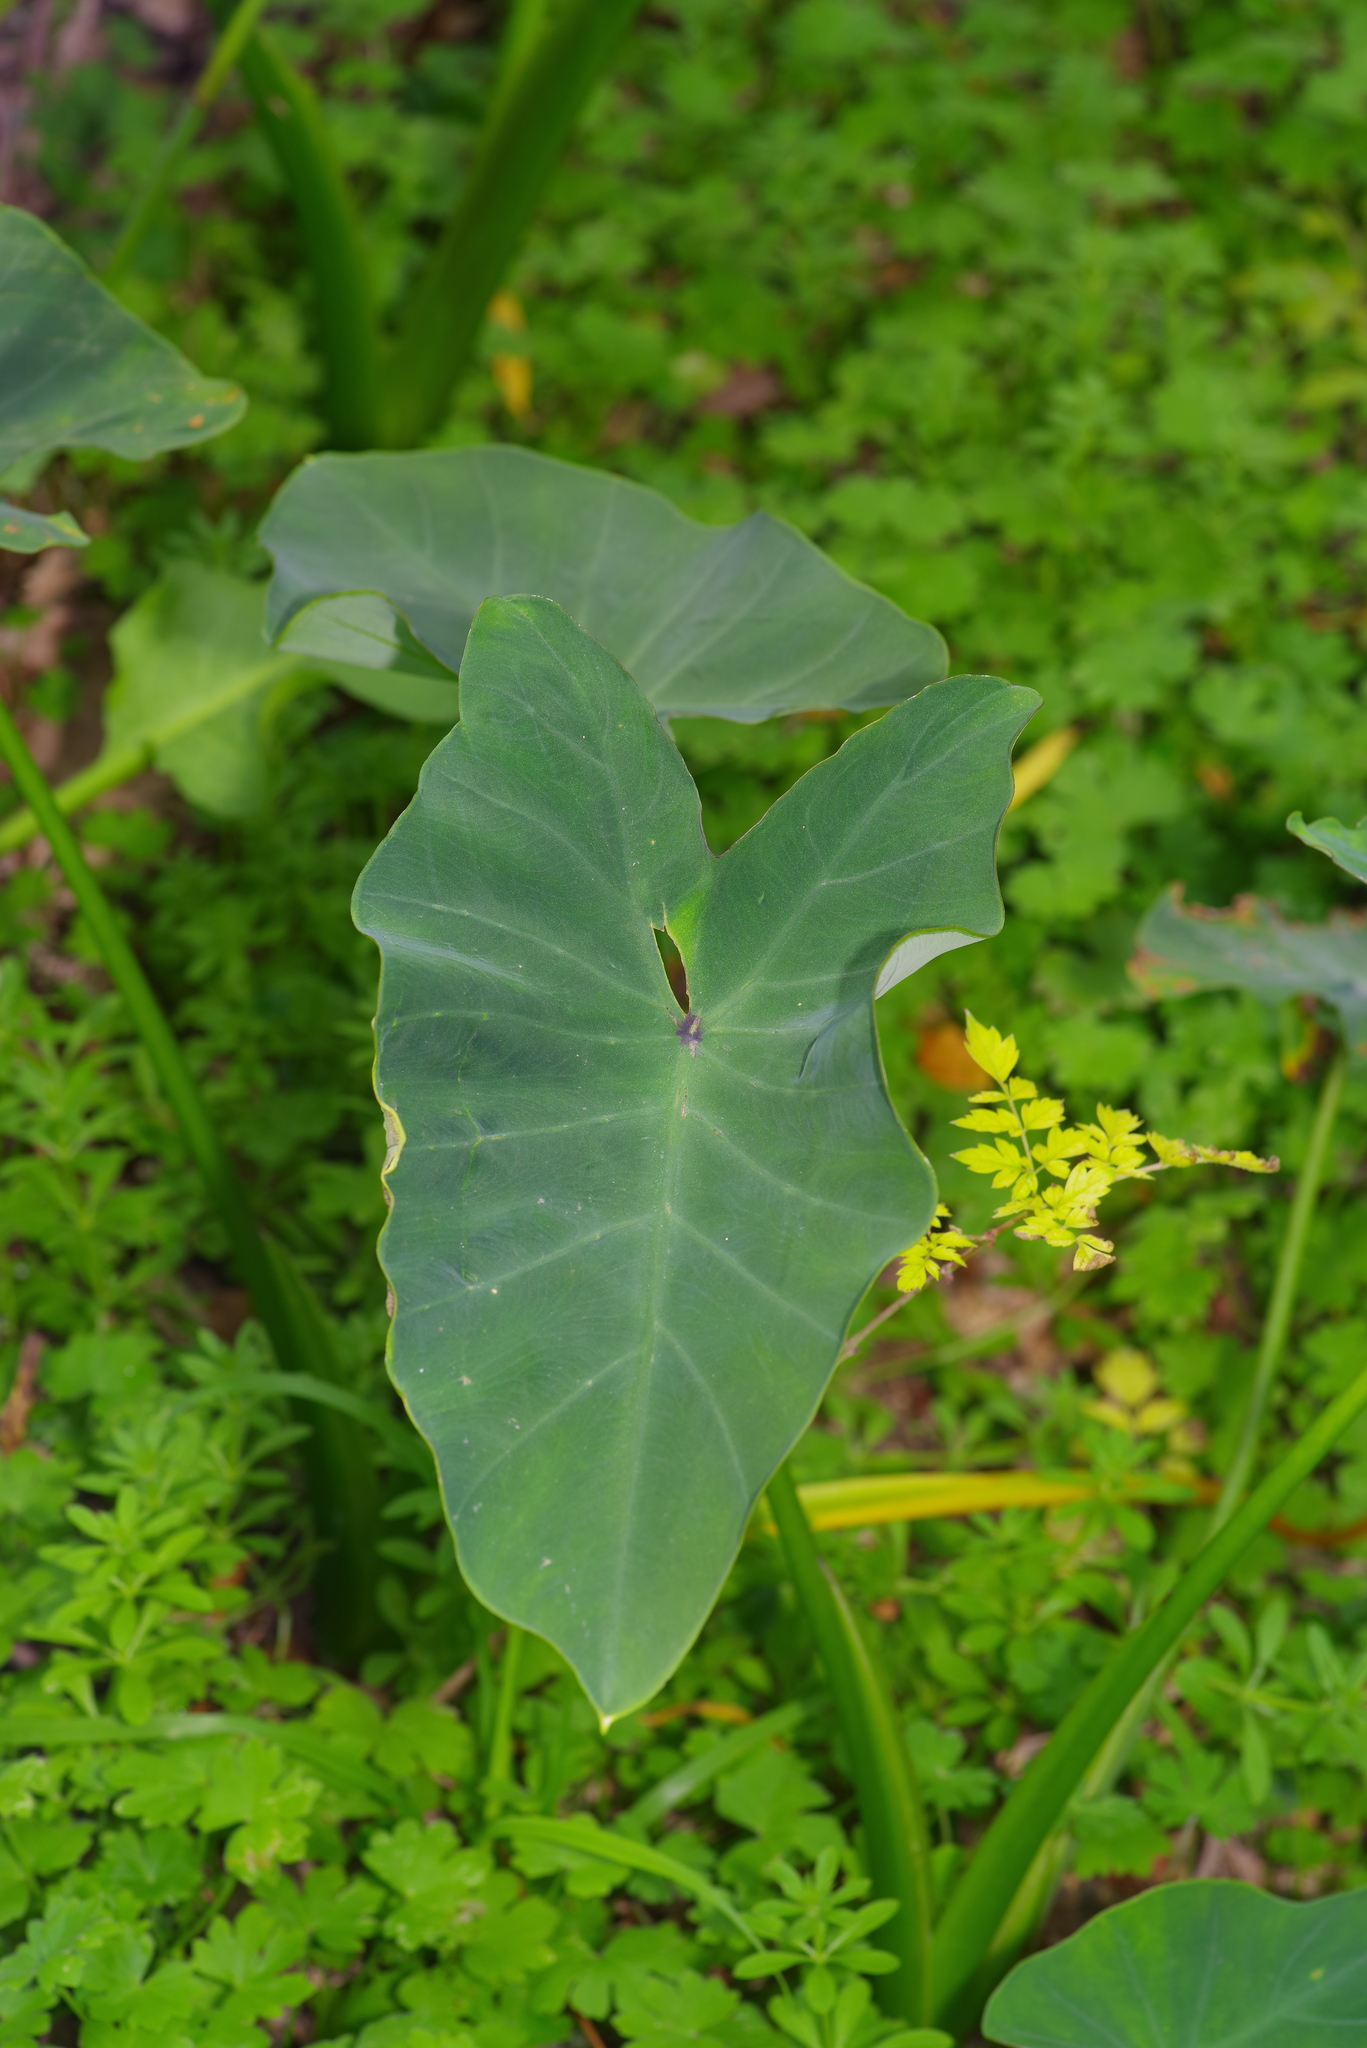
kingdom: Plantae
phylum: Tracheophyta
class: Liliopsida
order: Alismatales
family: Araceae
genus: Colocasia
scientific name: Colocasia esculenta
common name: Taro
